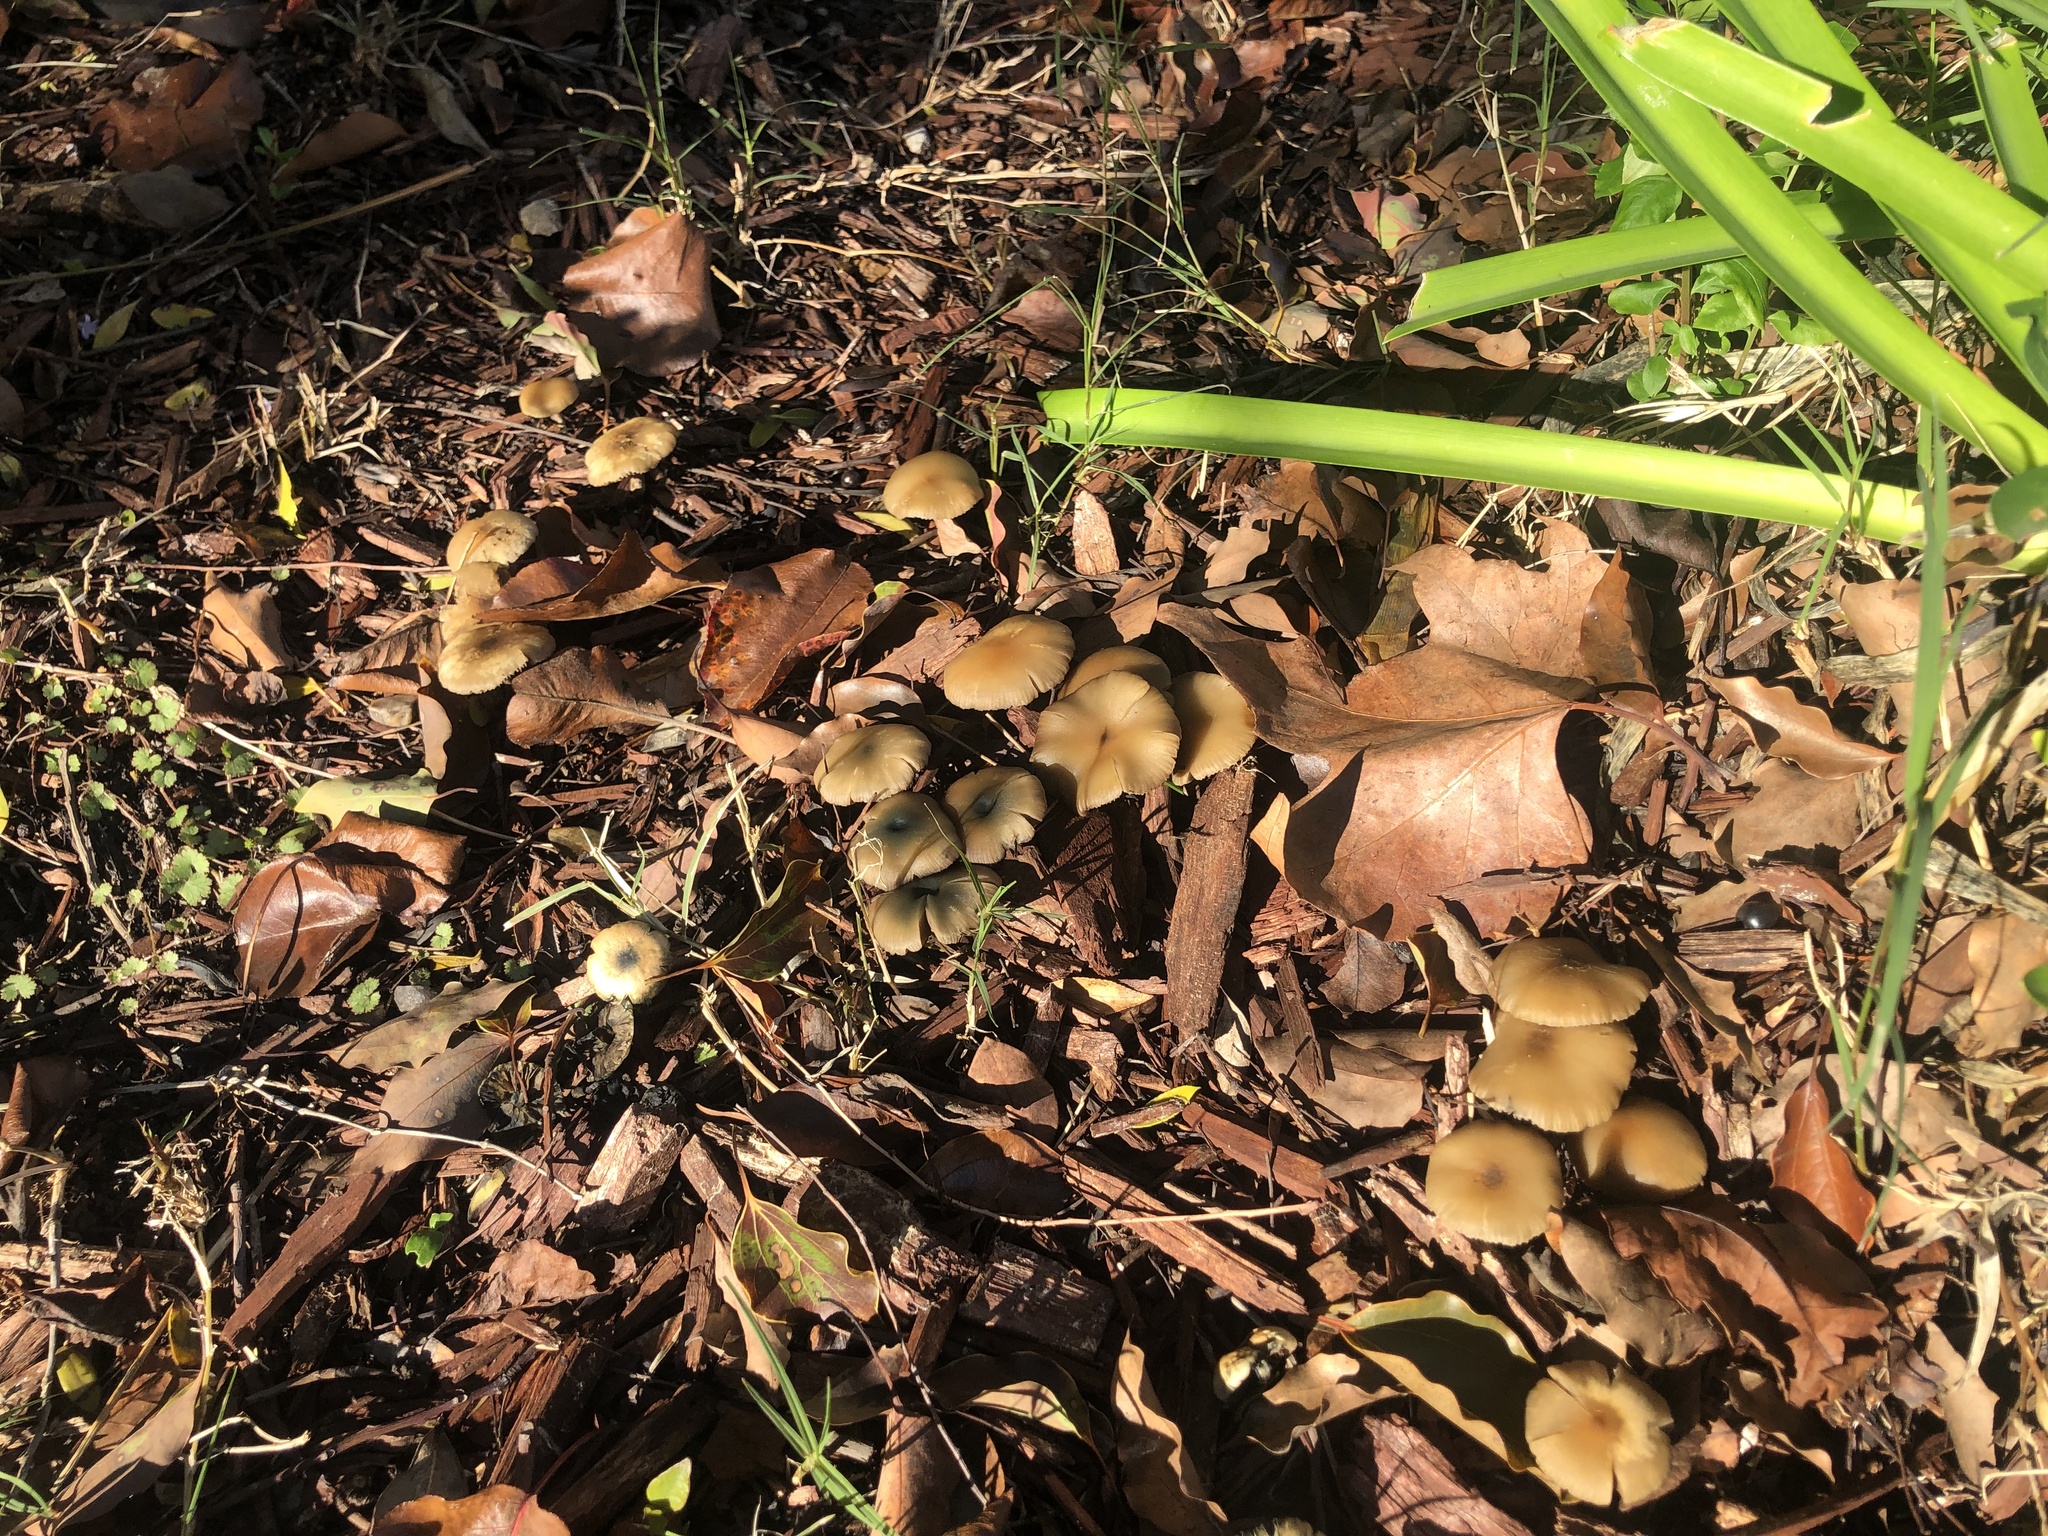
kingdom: Fungi
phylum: Basidiomycota
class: Agaricomycetes
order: Agaricales
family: Hymenogastraceae
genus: Psilocybe
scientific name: Psilocybe allenii
